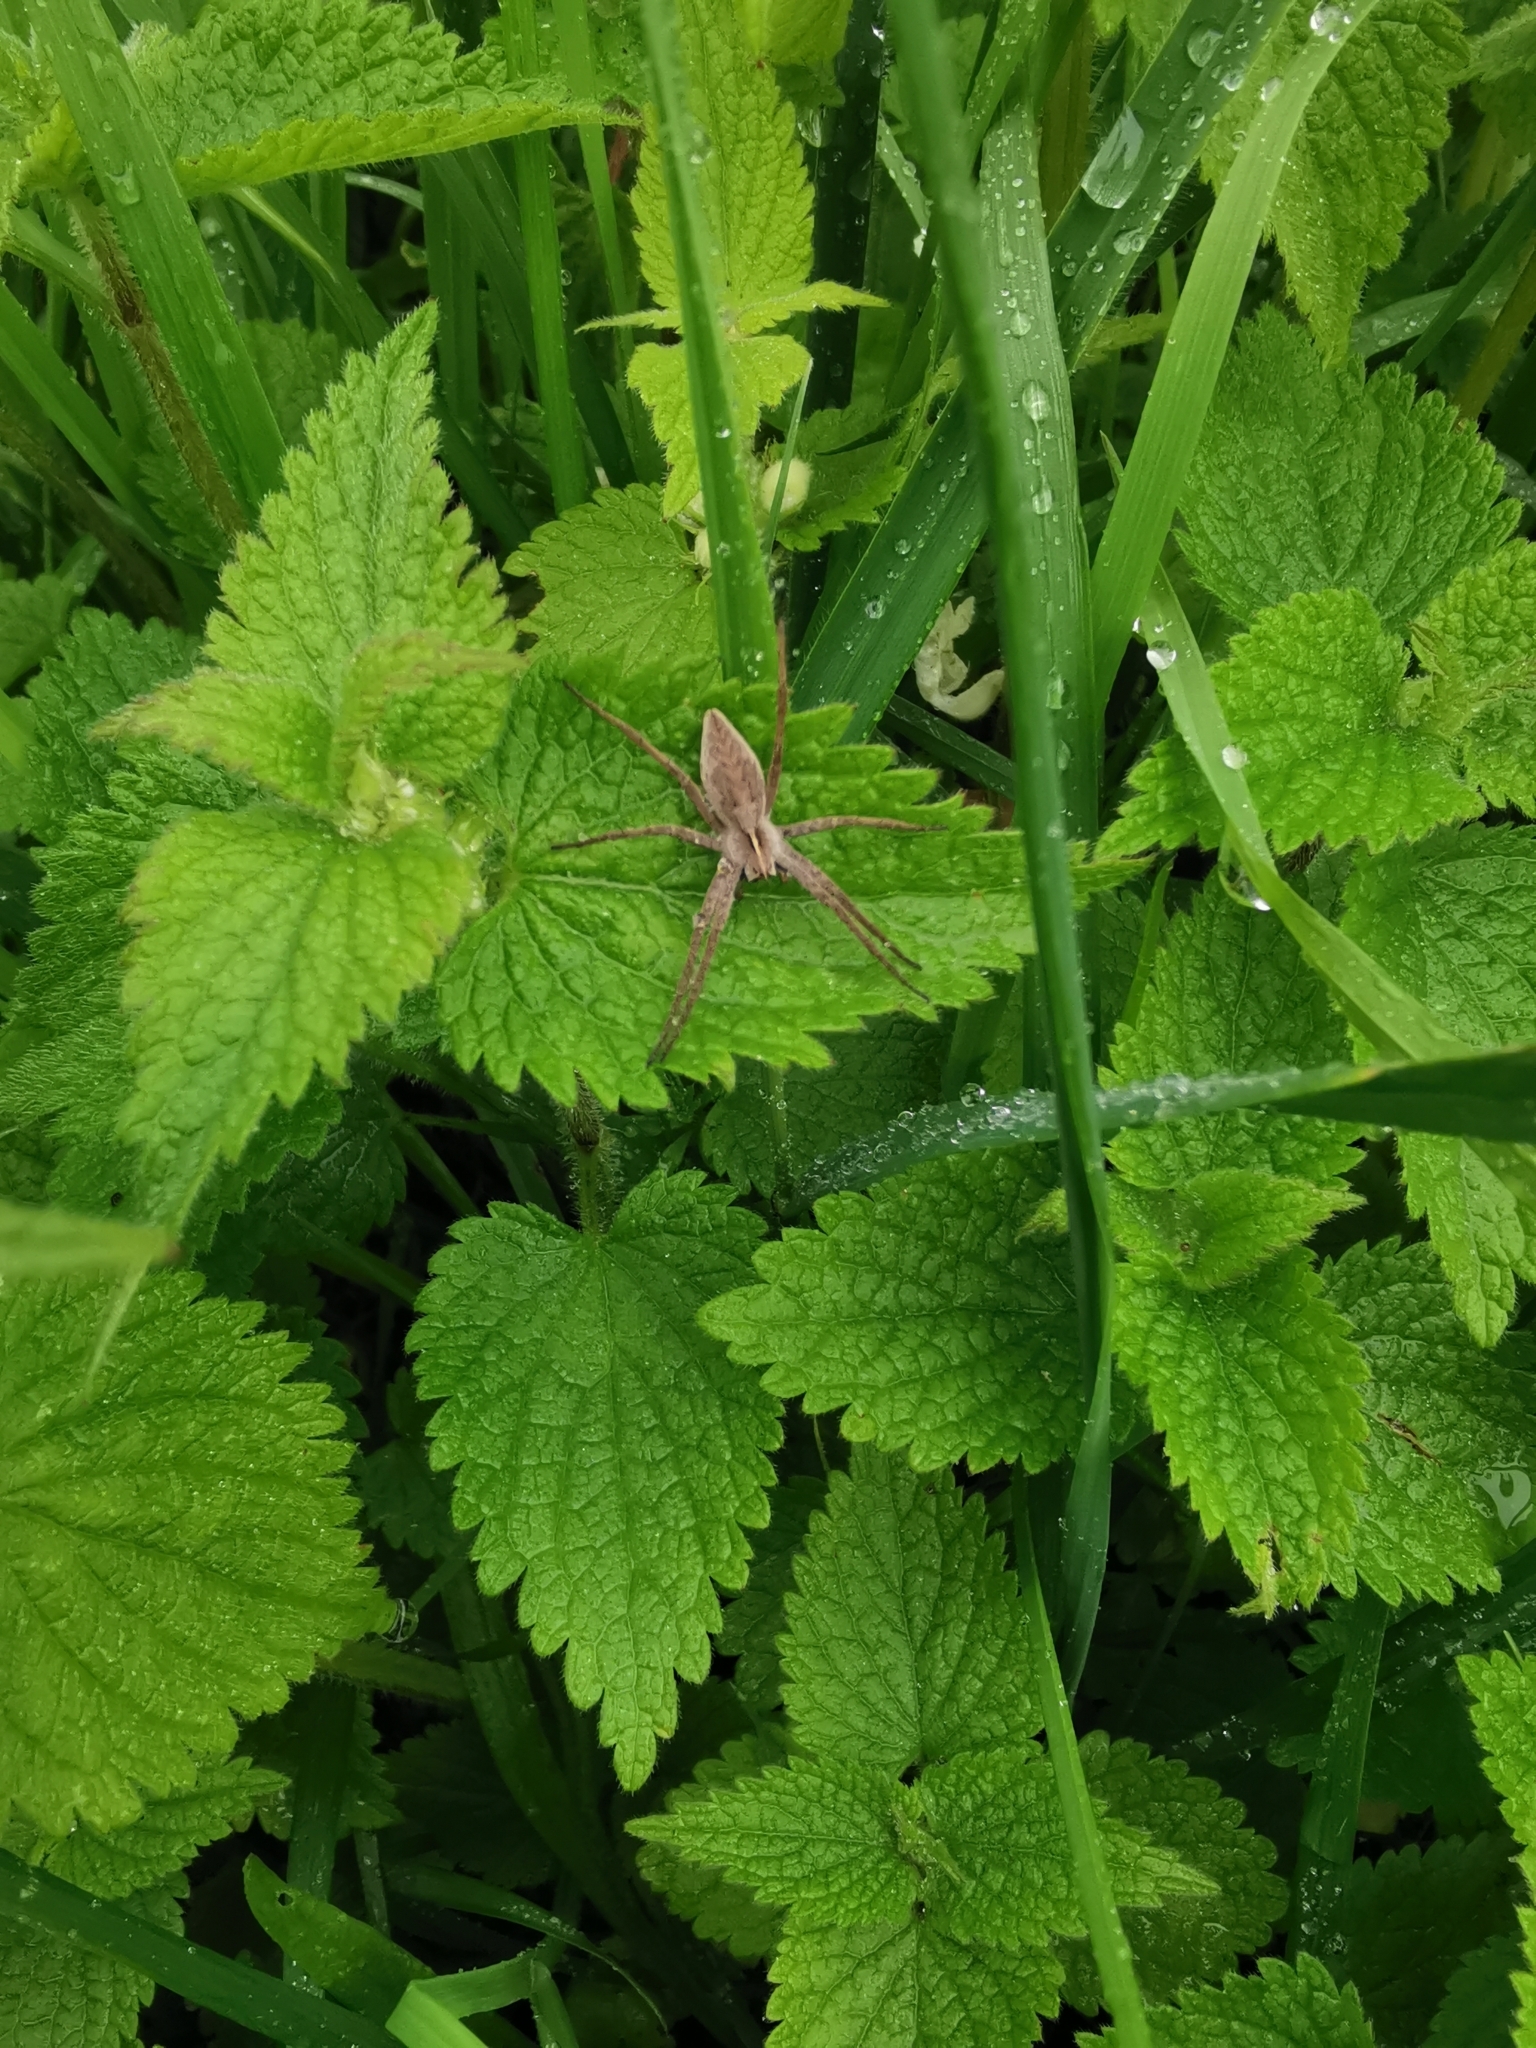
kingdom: Animalia
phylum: Arthropoda
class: Arachnida
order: Araneae
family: Pisauridae
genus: Pisaura
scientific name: Pisaura mirabilis
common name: Tent spider
